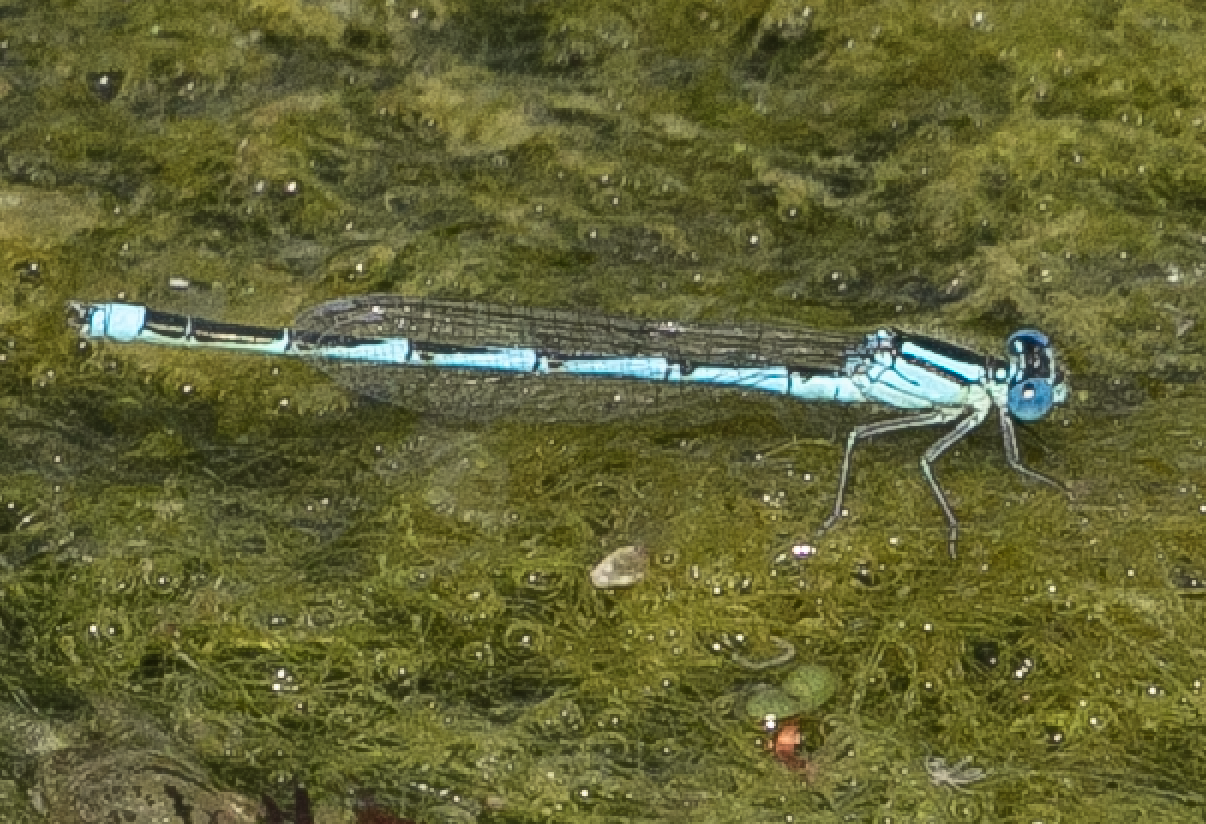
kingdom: Animalia
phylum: Arthropoda
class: Insecta
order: Odonata
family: Coenagrionidae
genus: Erythromma
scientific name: Erythromma lindenii
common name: Blue-eye
